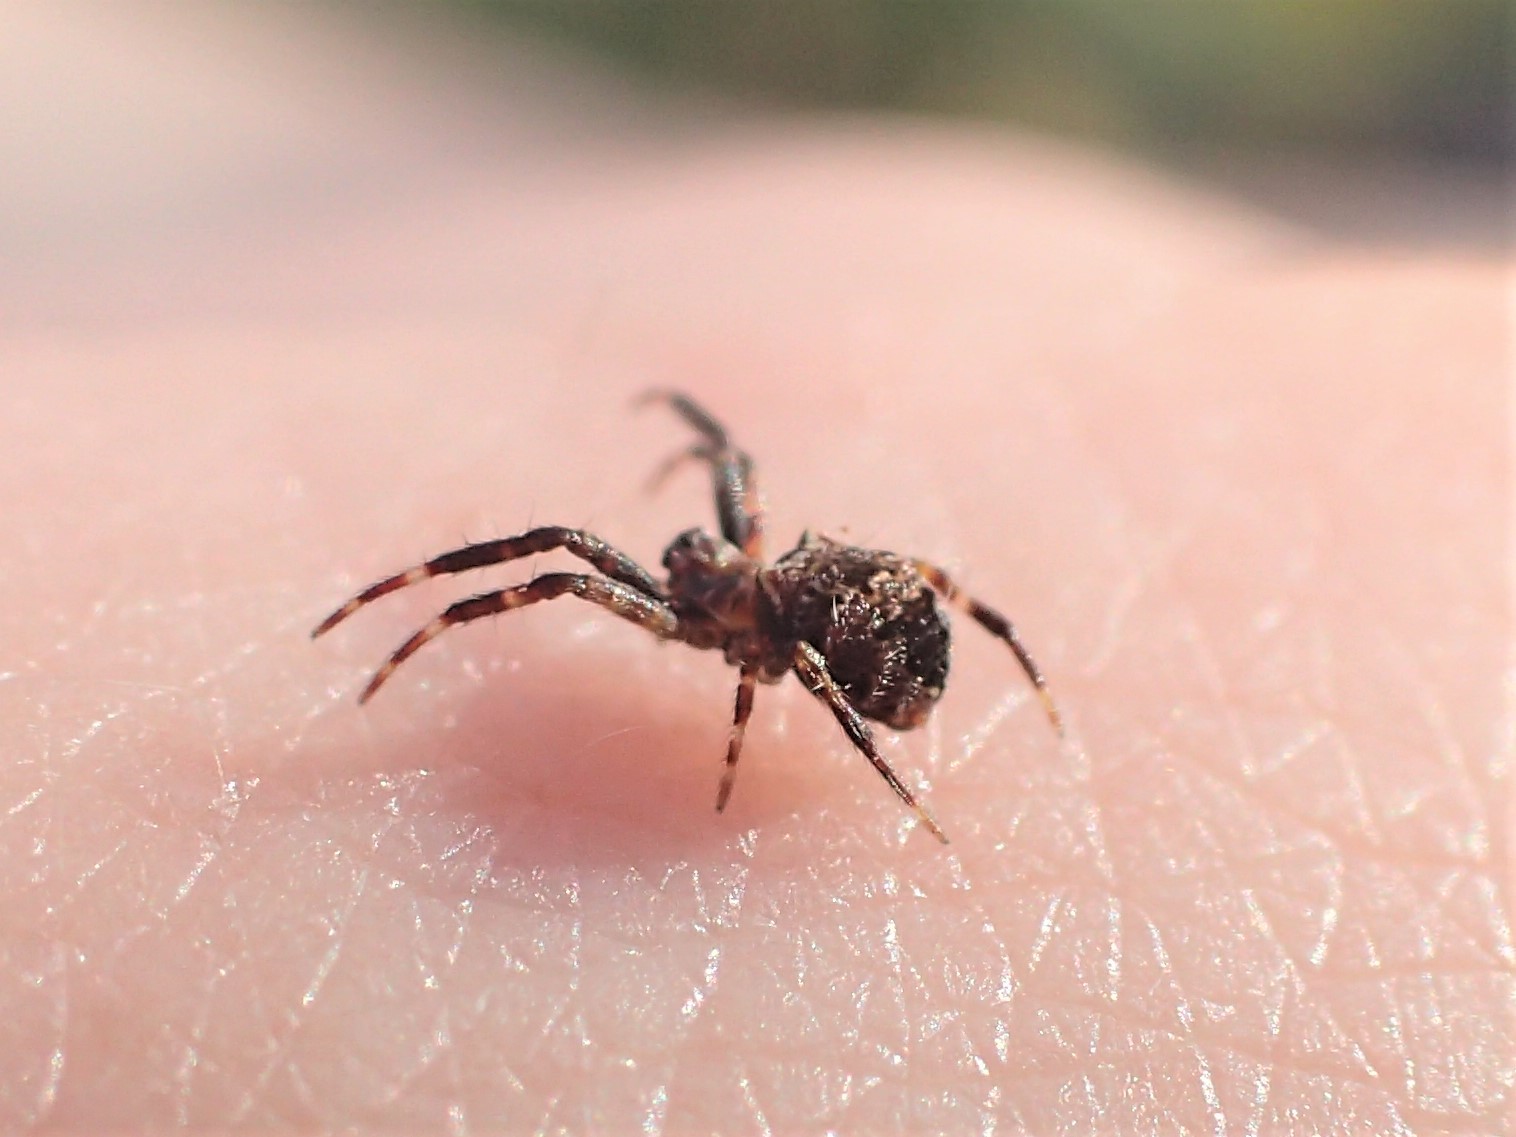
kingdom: Animalia
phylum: Arthropoda
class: Arachnida
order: Araneae
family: Araneidae
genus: Gea
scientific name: Gea heptagon
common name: Orb weavers
